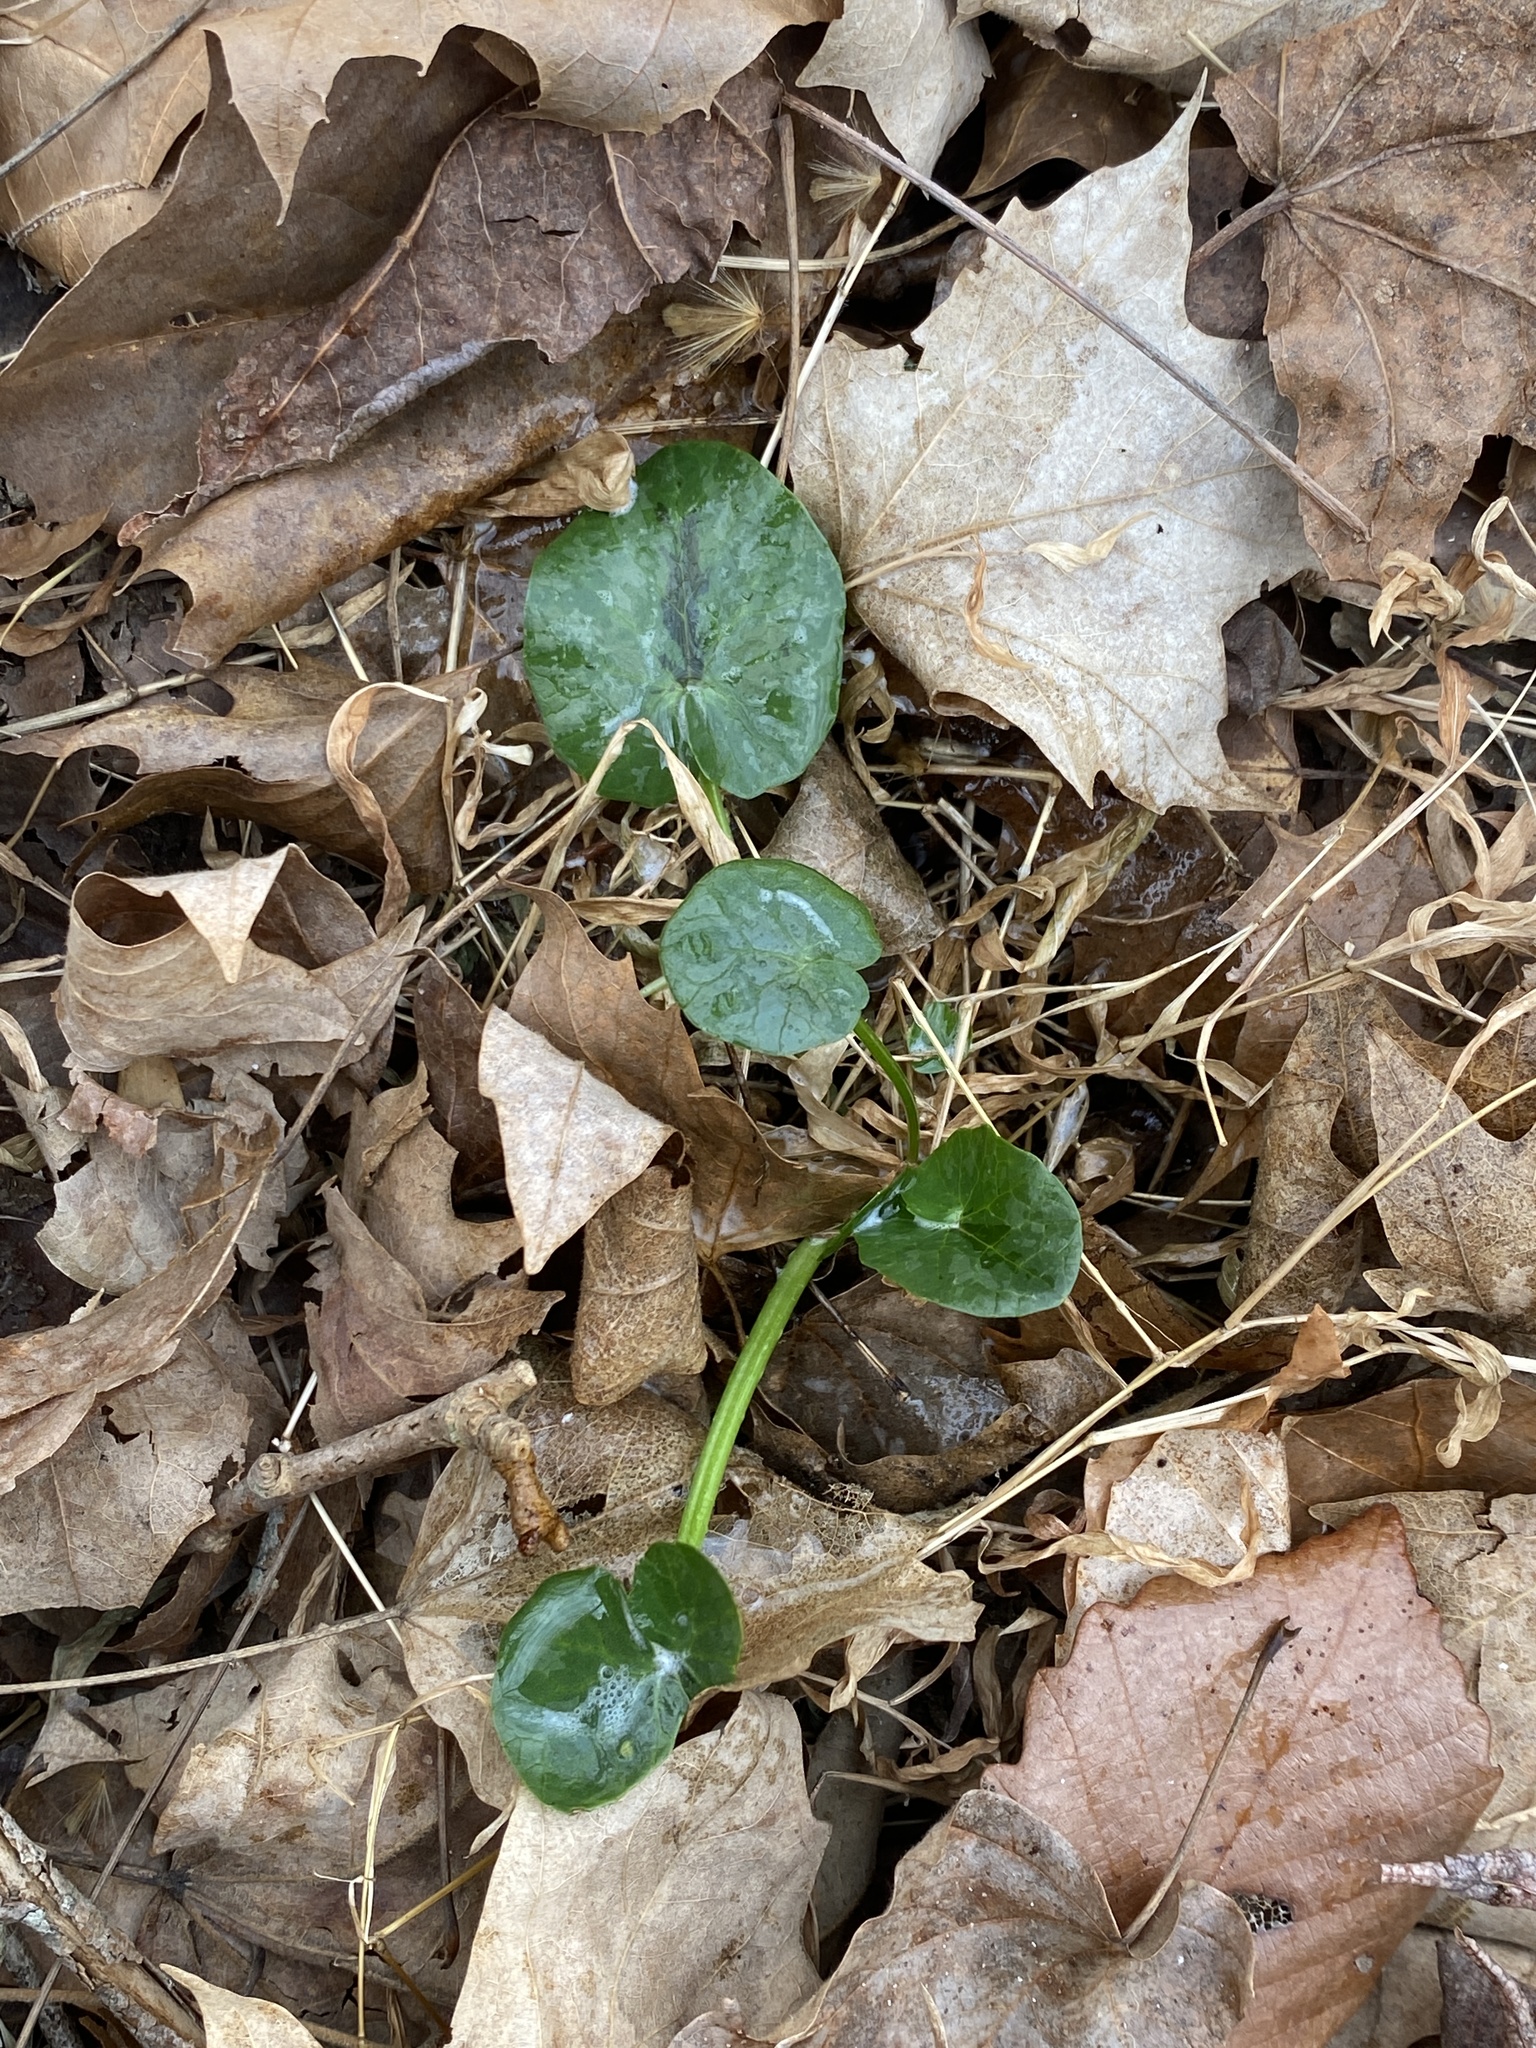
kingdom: Plantae
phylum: Tracheophyta
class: Magnoliopsida
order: Ranunculales
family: Ranunculaceae
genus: Ficaria
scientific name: Ficaria verna
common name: Lesser celandine
